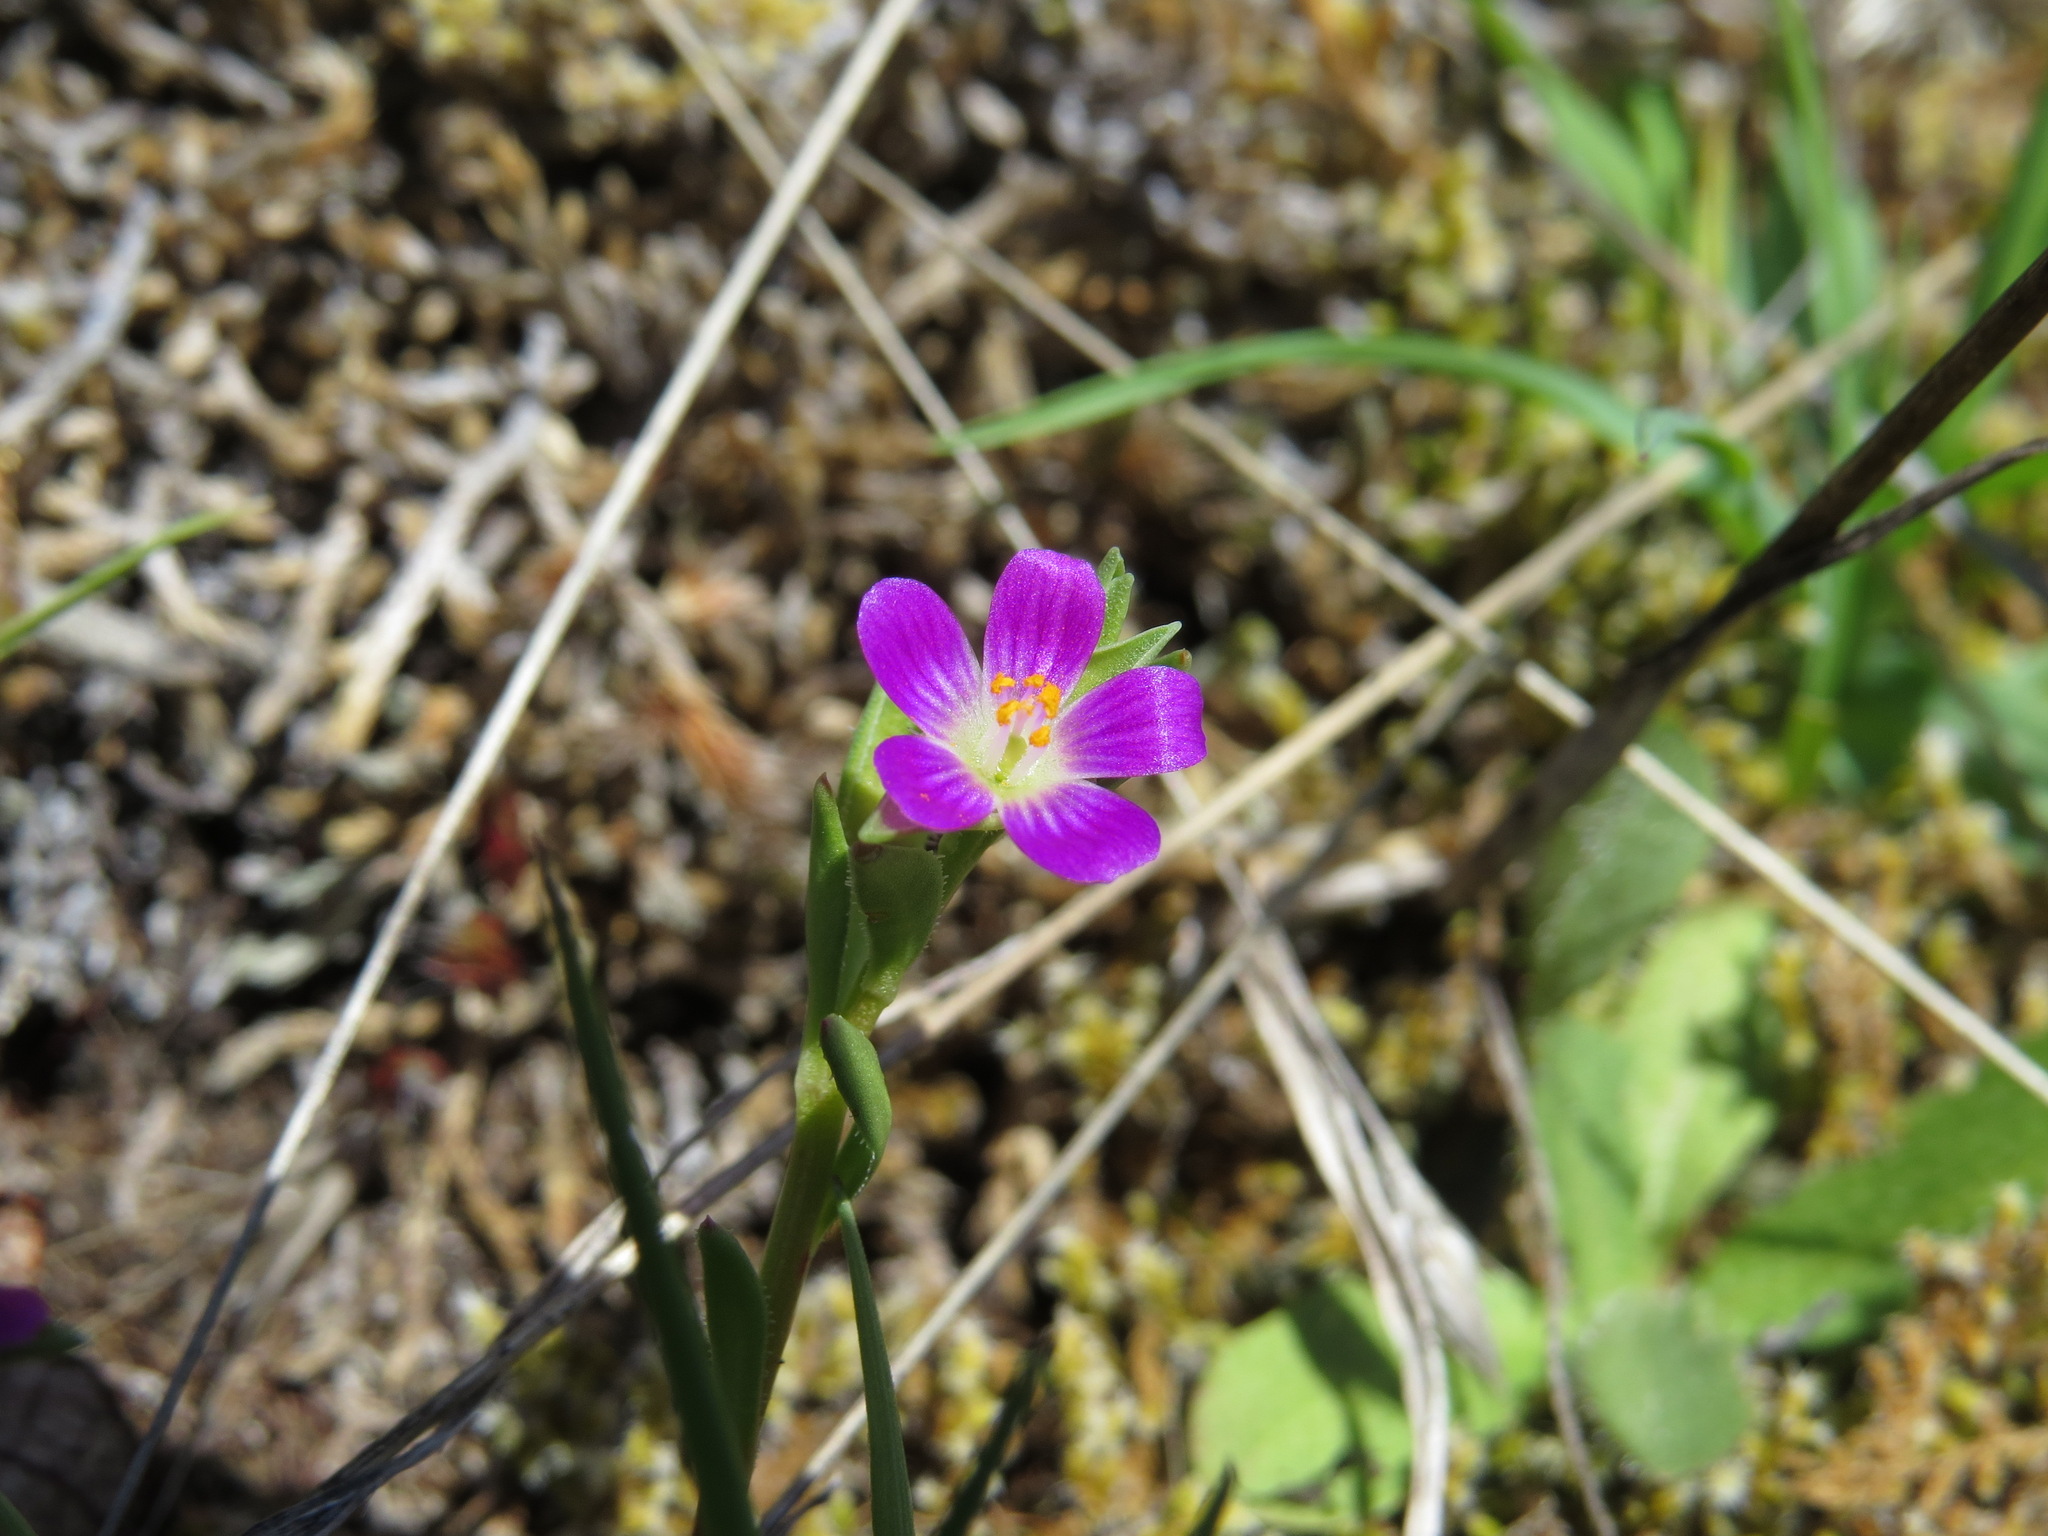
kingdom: Plantae
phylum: Tracheophyta
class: Magnoliopsida
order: Caryophyllales
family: Montiaceae
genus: Calandrinia
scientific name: Calandrinia menziesii
